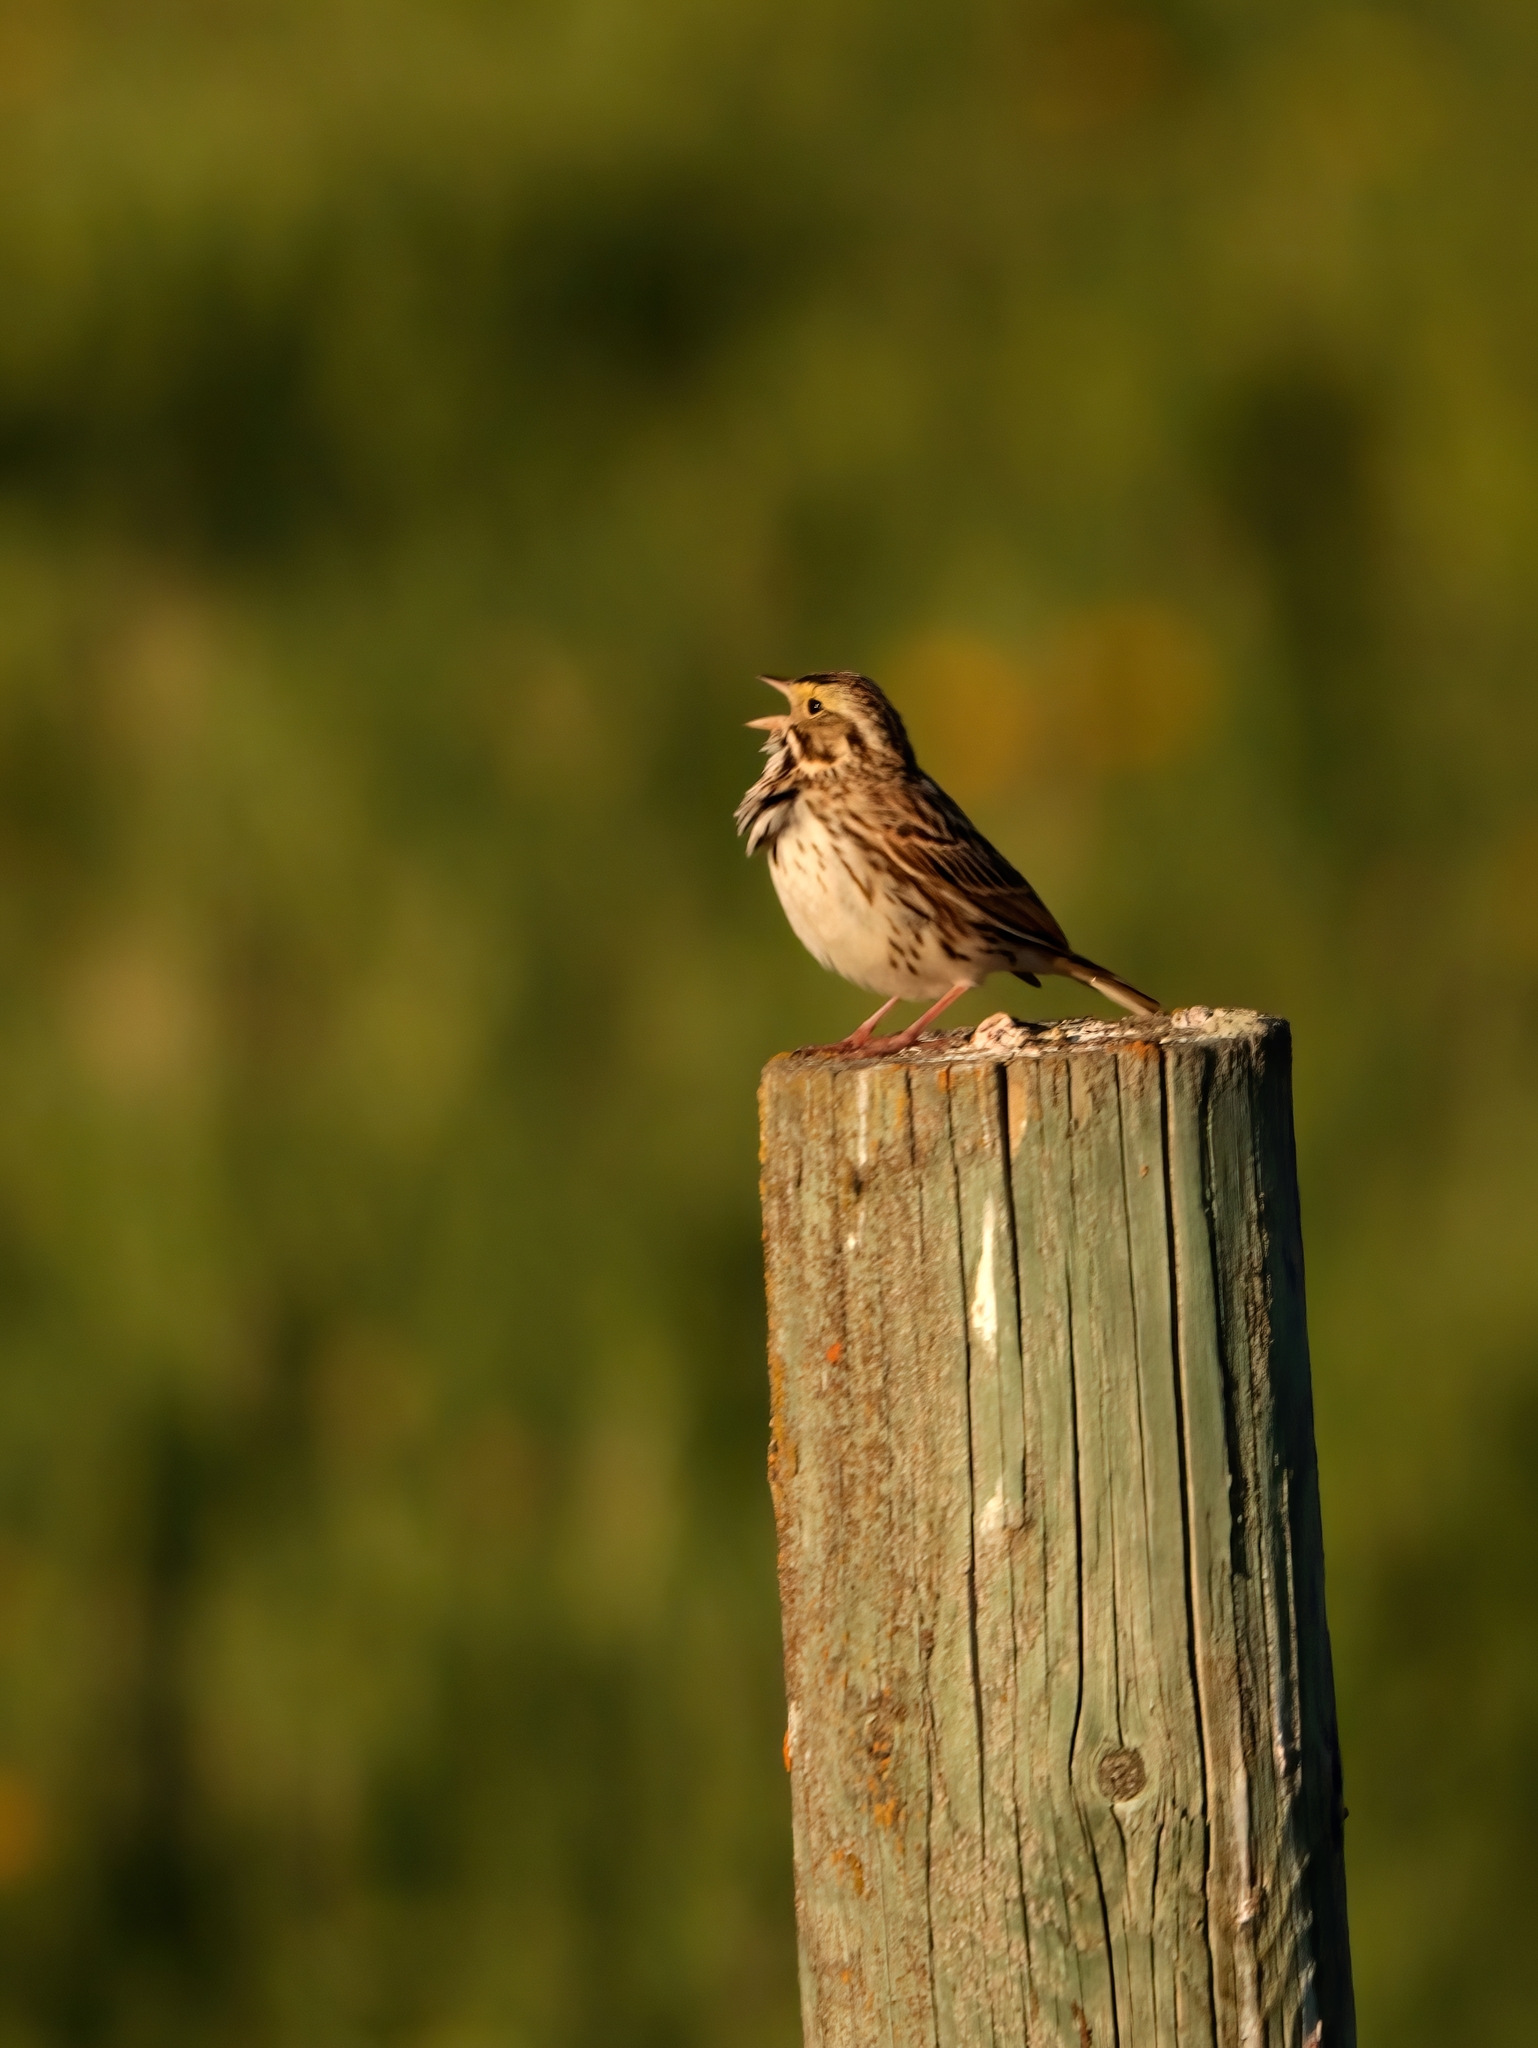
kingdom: Animalia
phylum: Chordata
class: Aves
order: Passeriformes
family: Passerellidae
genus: Passerculus
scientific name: Passerculus sandwichensis
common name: Savannah sparrow
